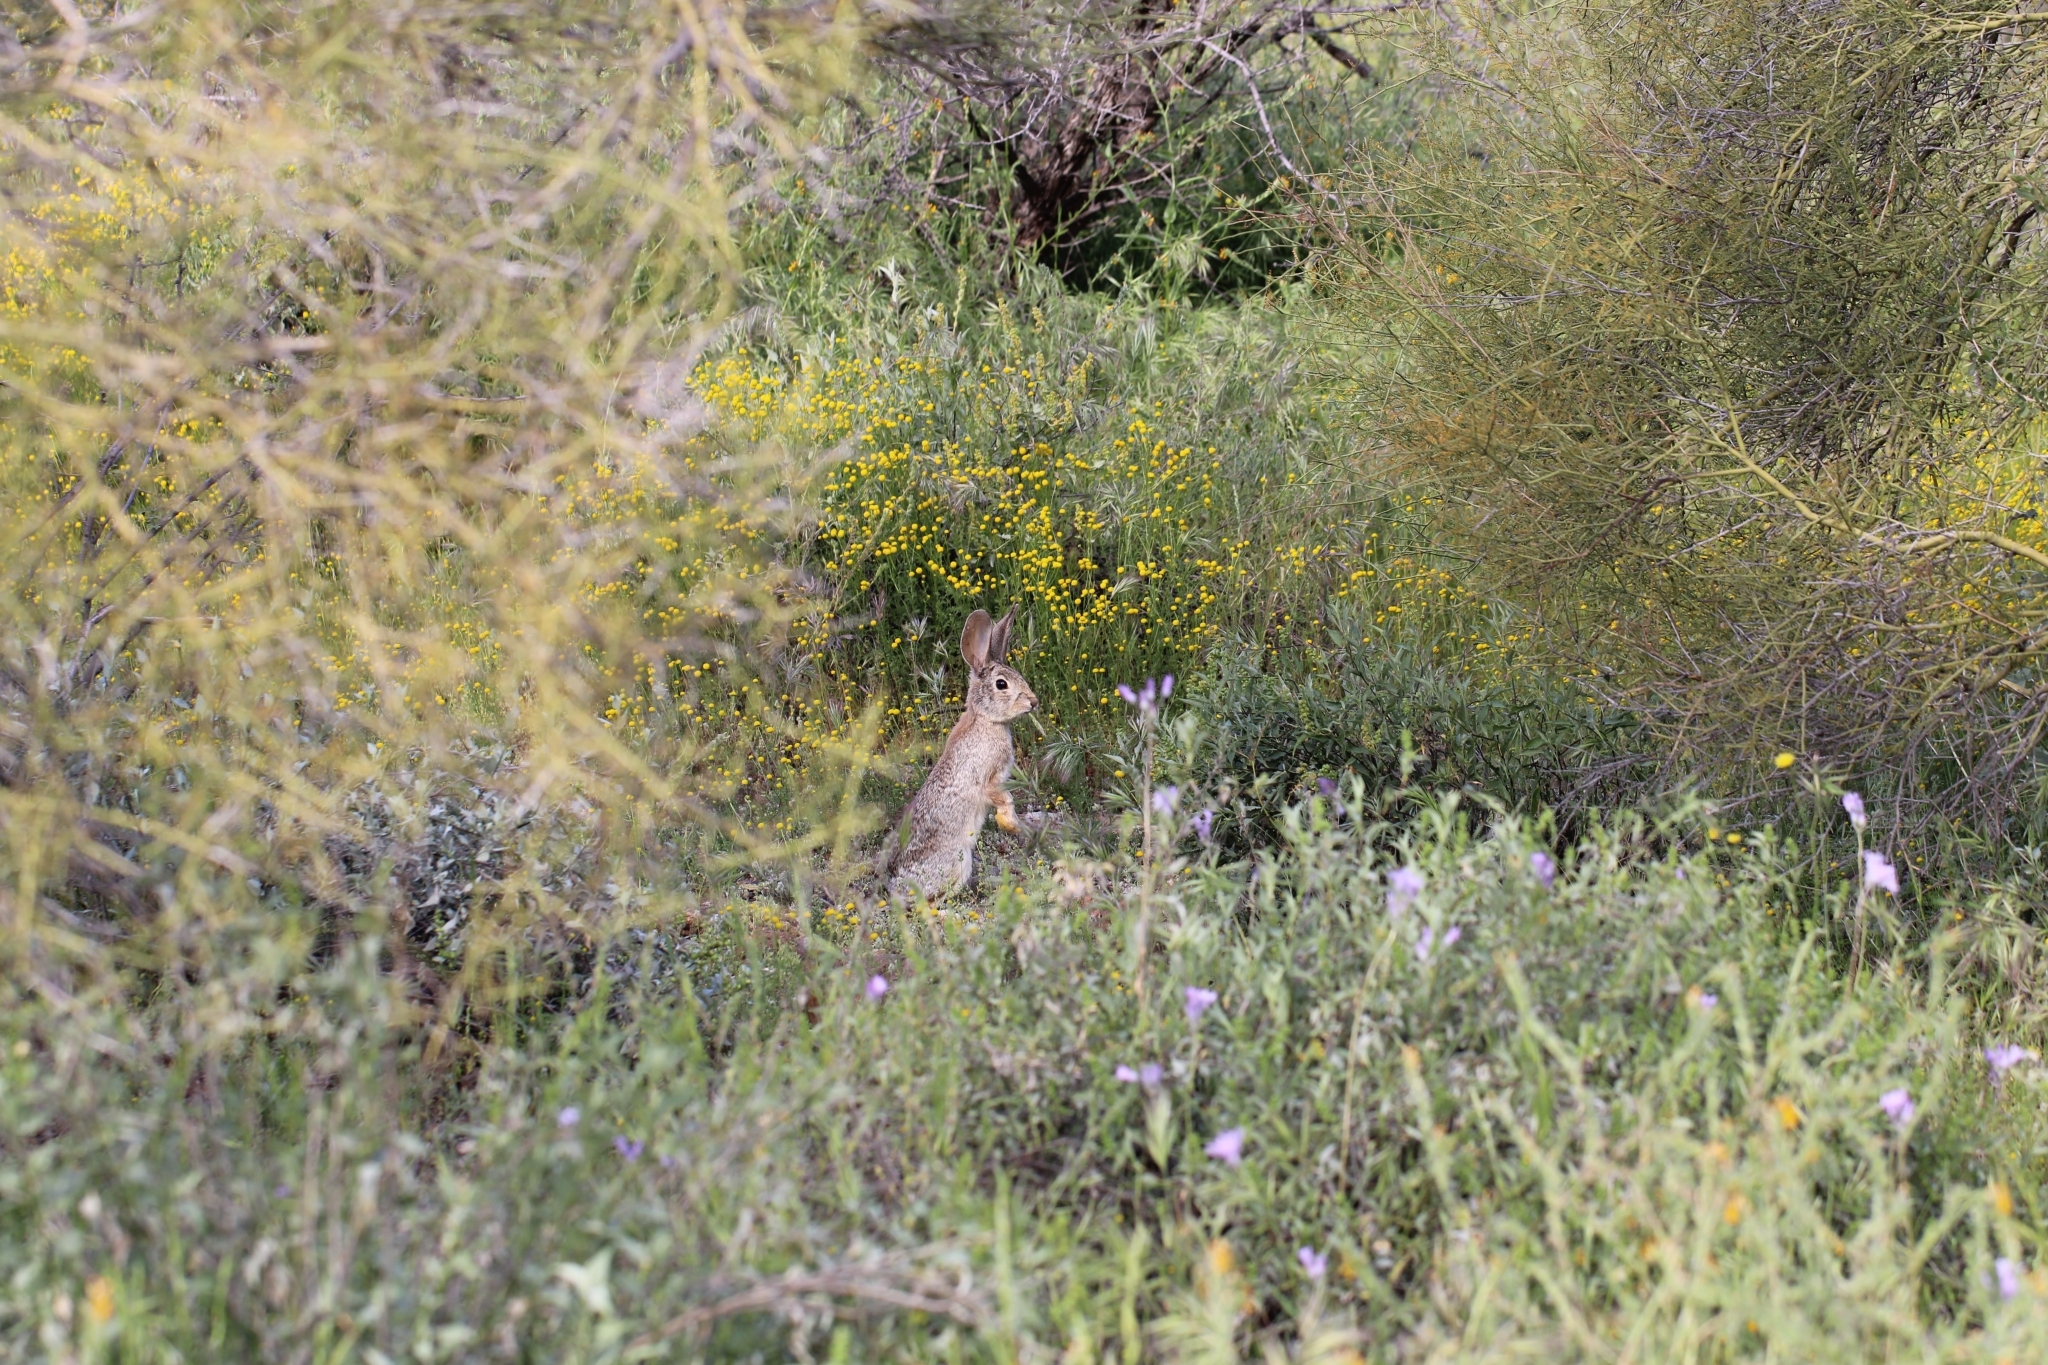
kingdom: Animalia
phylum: Chordata
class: Mammalia
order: Lagomorpha
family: Leporidae
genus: Sylvilagus
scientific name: Sylvilagus audubonii
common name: Desert cottontail
